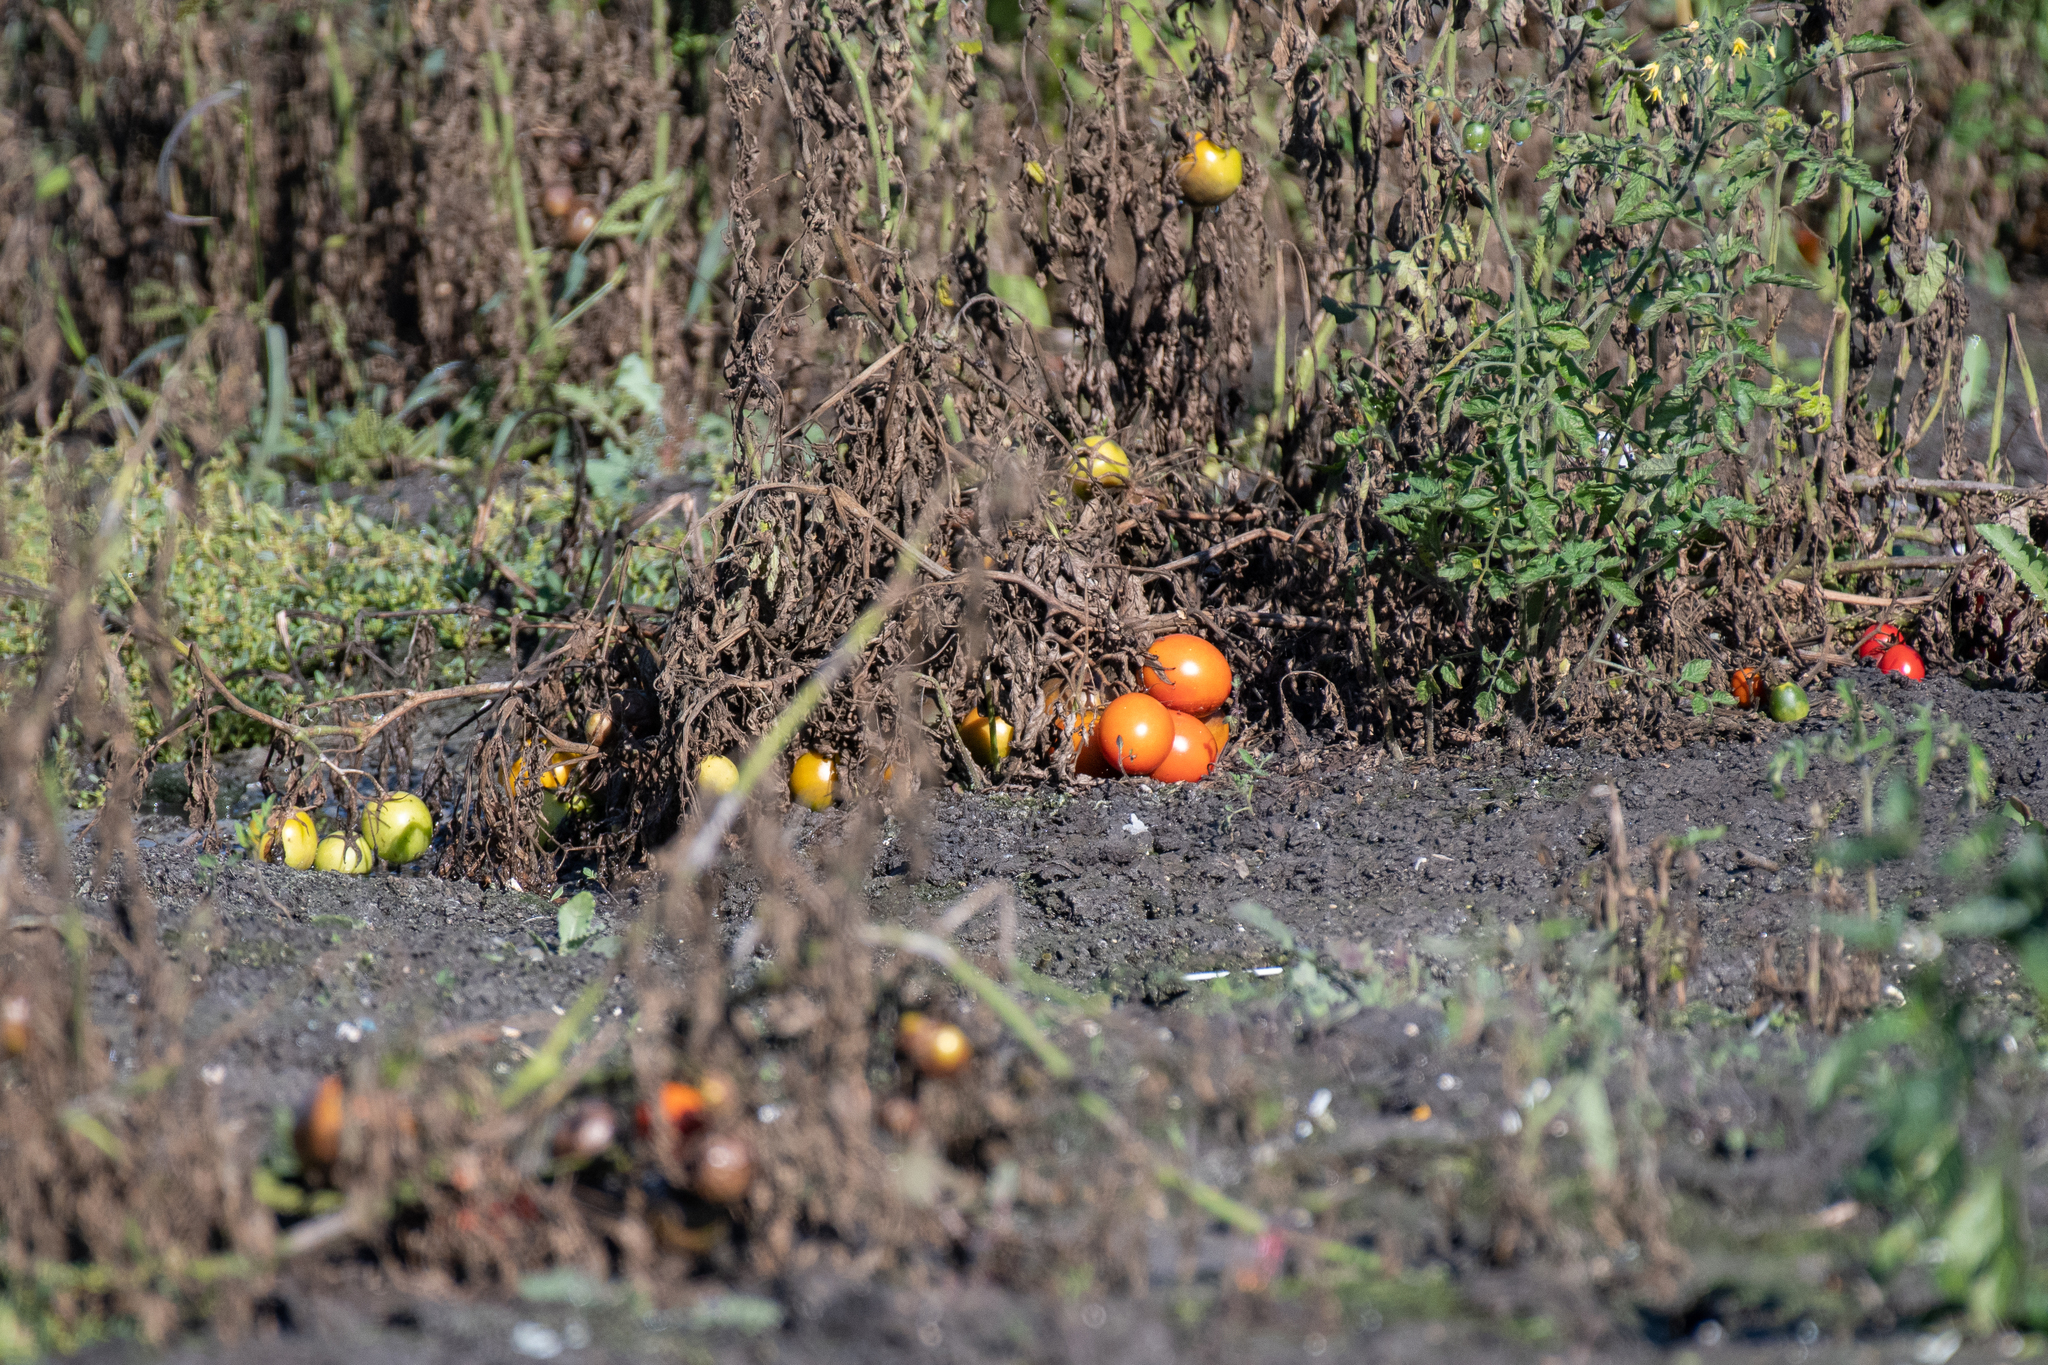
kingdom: Plantae
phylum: Tracheophyta
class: Magnoliopsida
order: Solanales
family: Solanaceae
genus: Solanum
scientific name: Solanum lycopersicum
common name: Garden tomato
